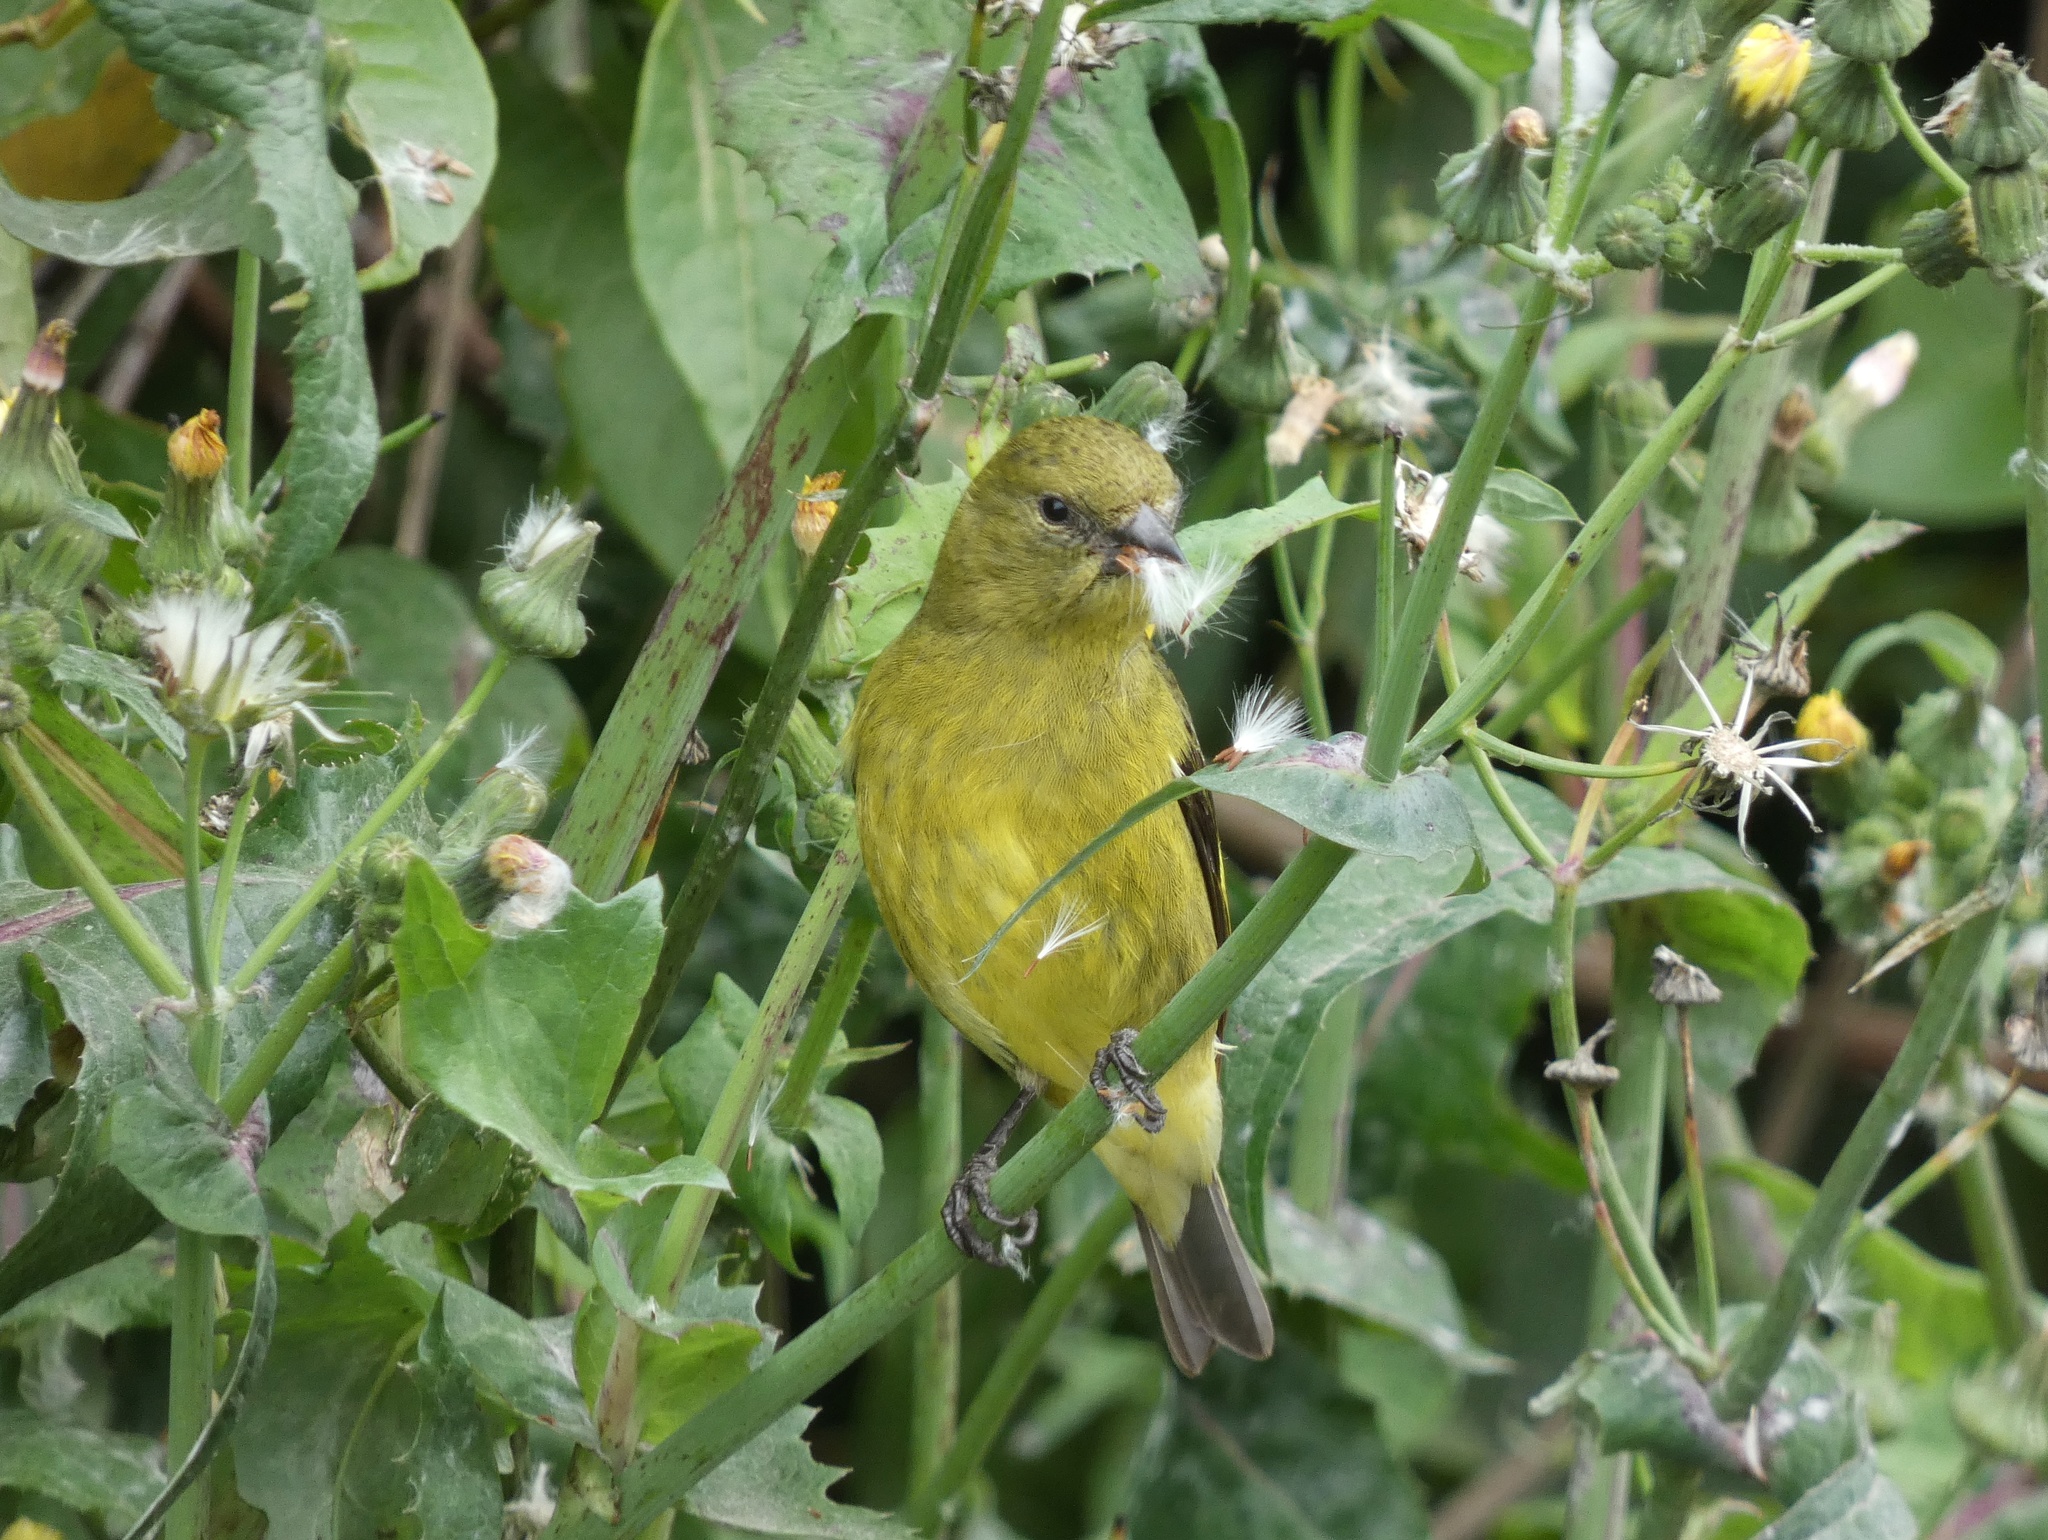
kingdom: Animalia
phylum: Chordata
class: Aves
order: Passeriformes
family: Fringillidae
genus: Spinus
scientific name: Spinus xanthogastrus
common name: Yellow-bellied siskin
